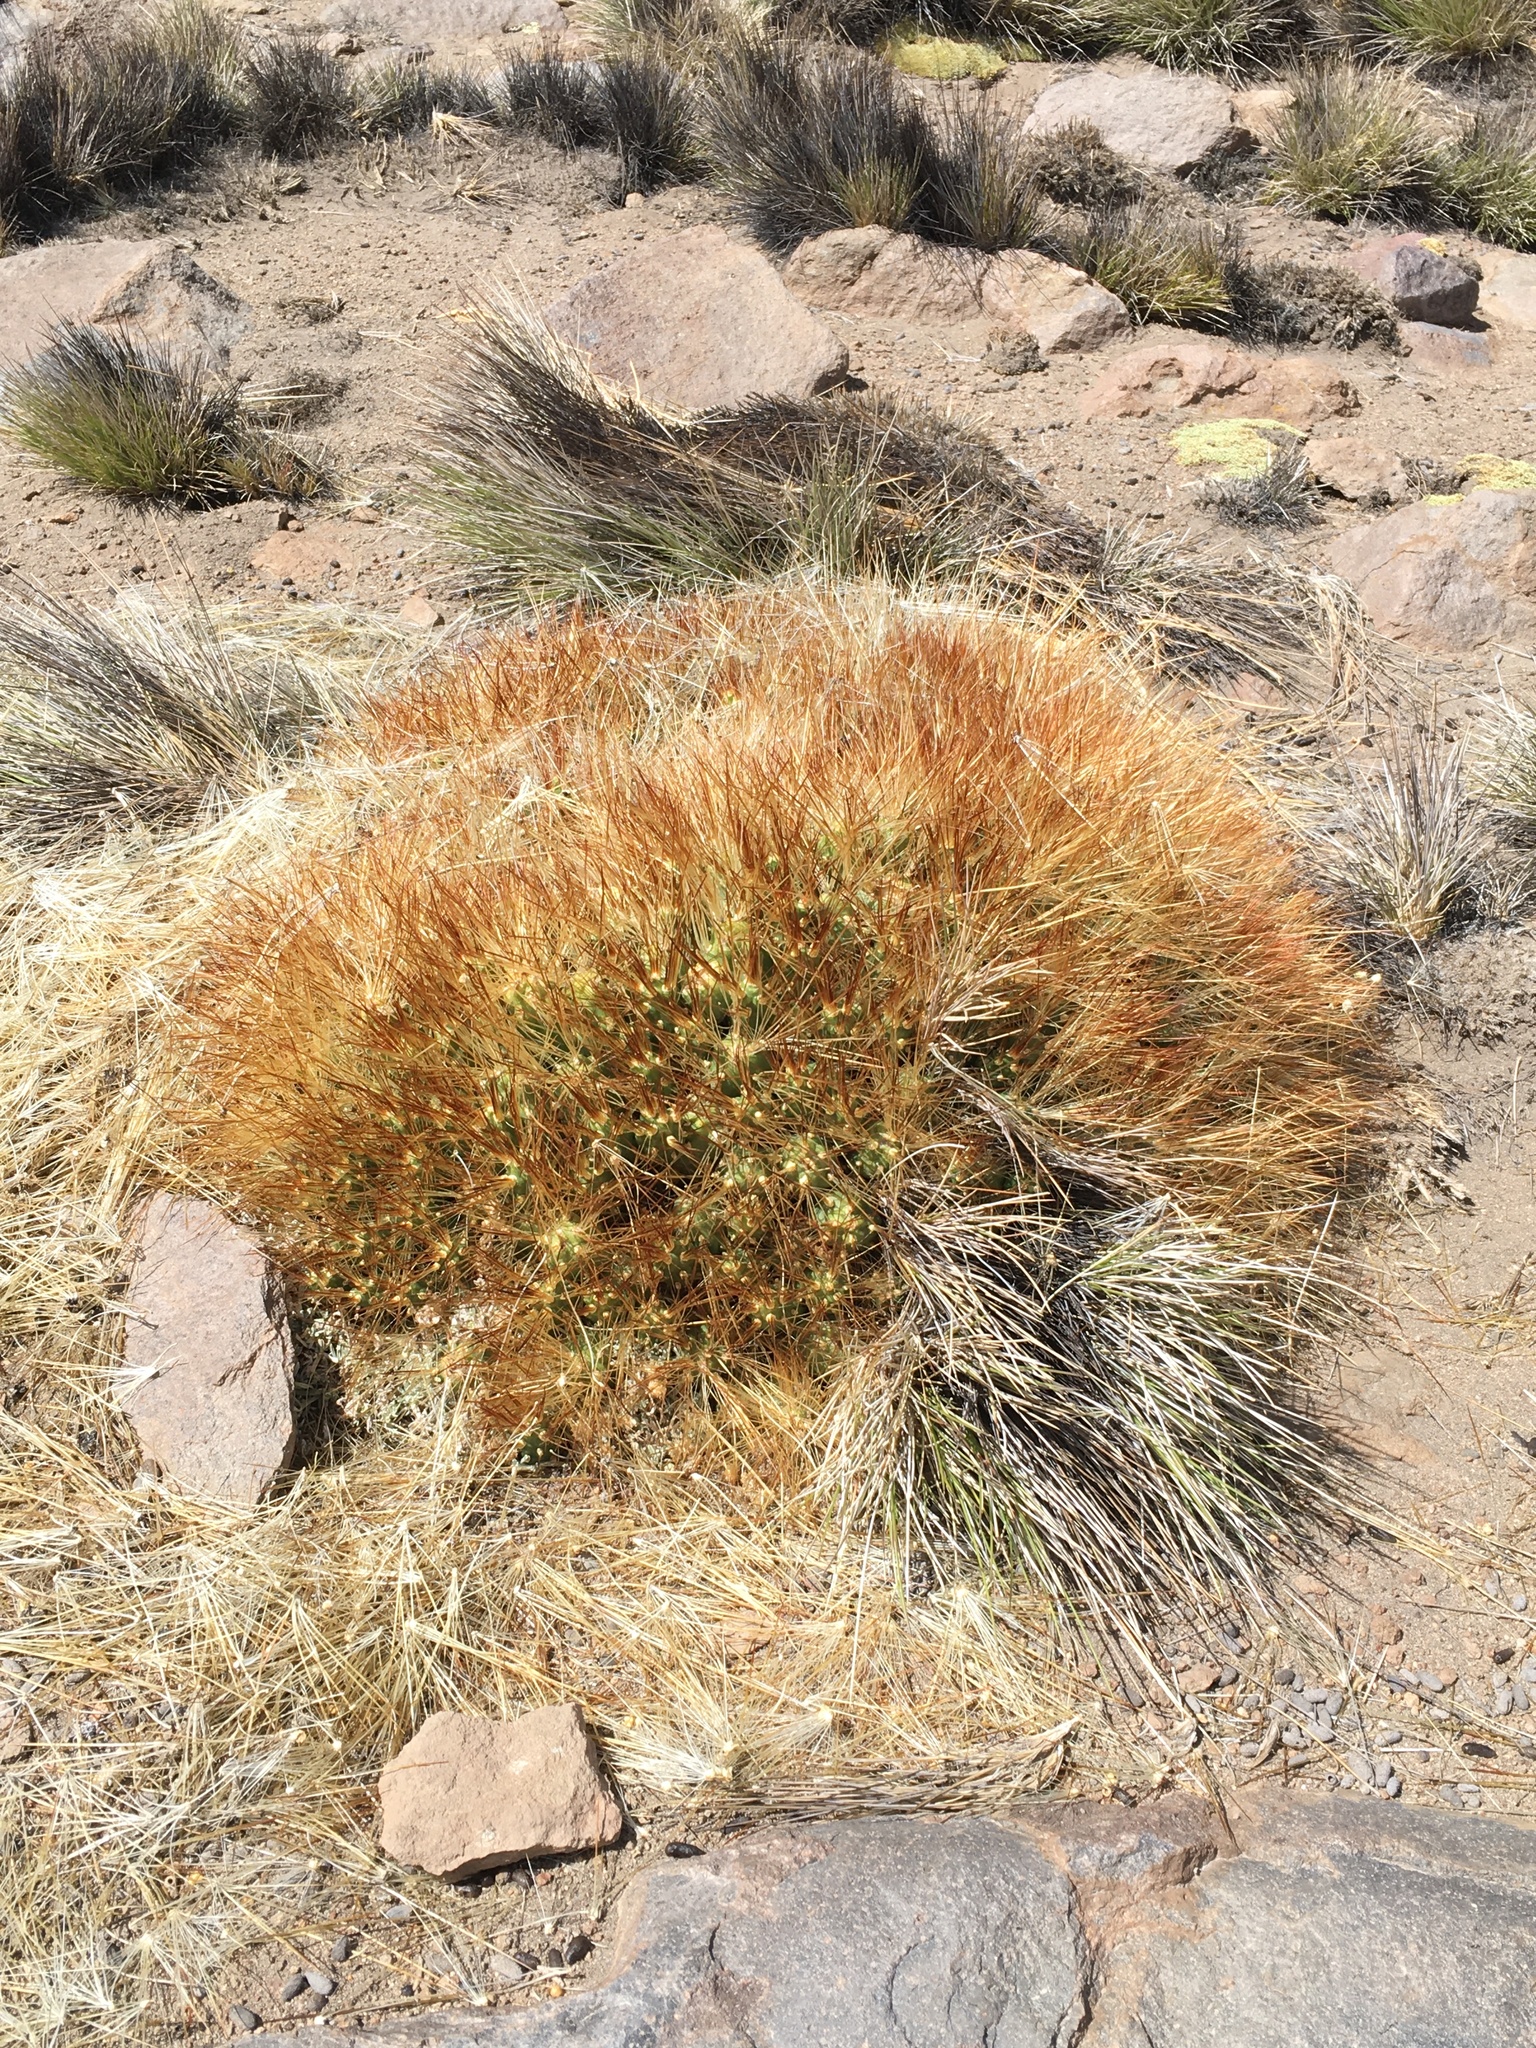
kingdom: Plantae
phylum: Tracheophyta
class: Magnoliopsida
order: Caryophyllales
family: Cactaceae
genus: Cumulopuntia
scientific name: Cumulopuntia glomerata
